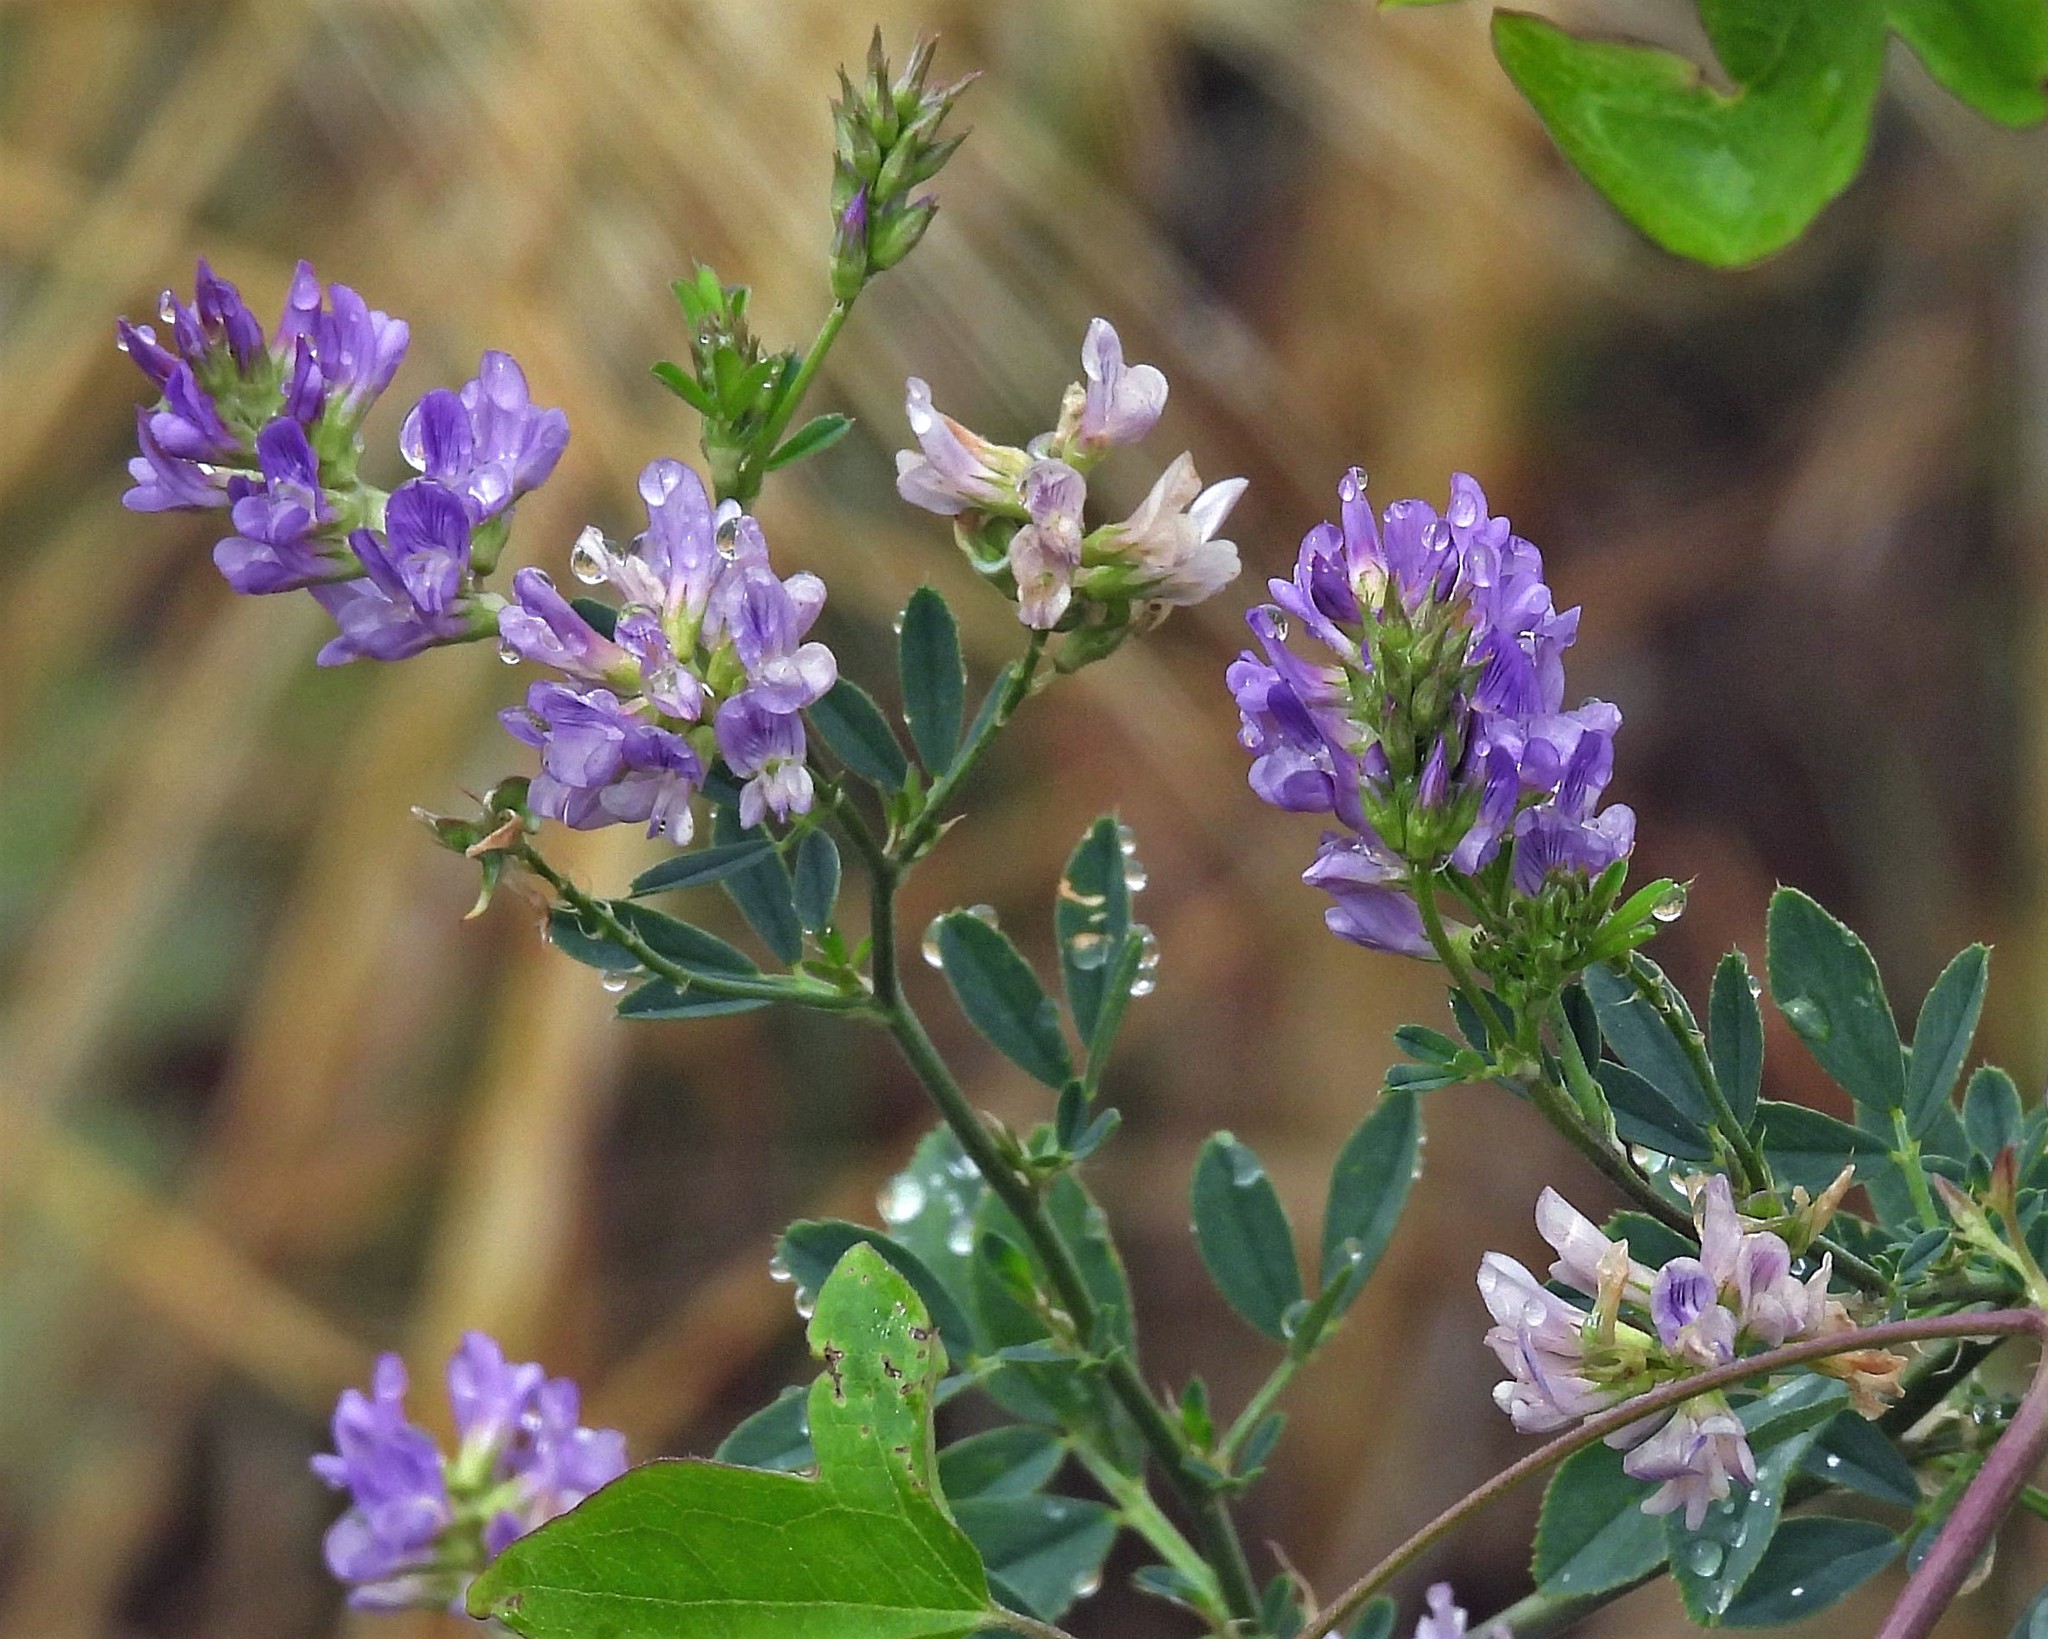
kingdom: Plantae
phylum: Tracheophyta
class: Magnoliopsida
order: Fabales
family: Fabaceae
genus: Medicago
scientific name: Medicago sativa
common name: Alfalfa
